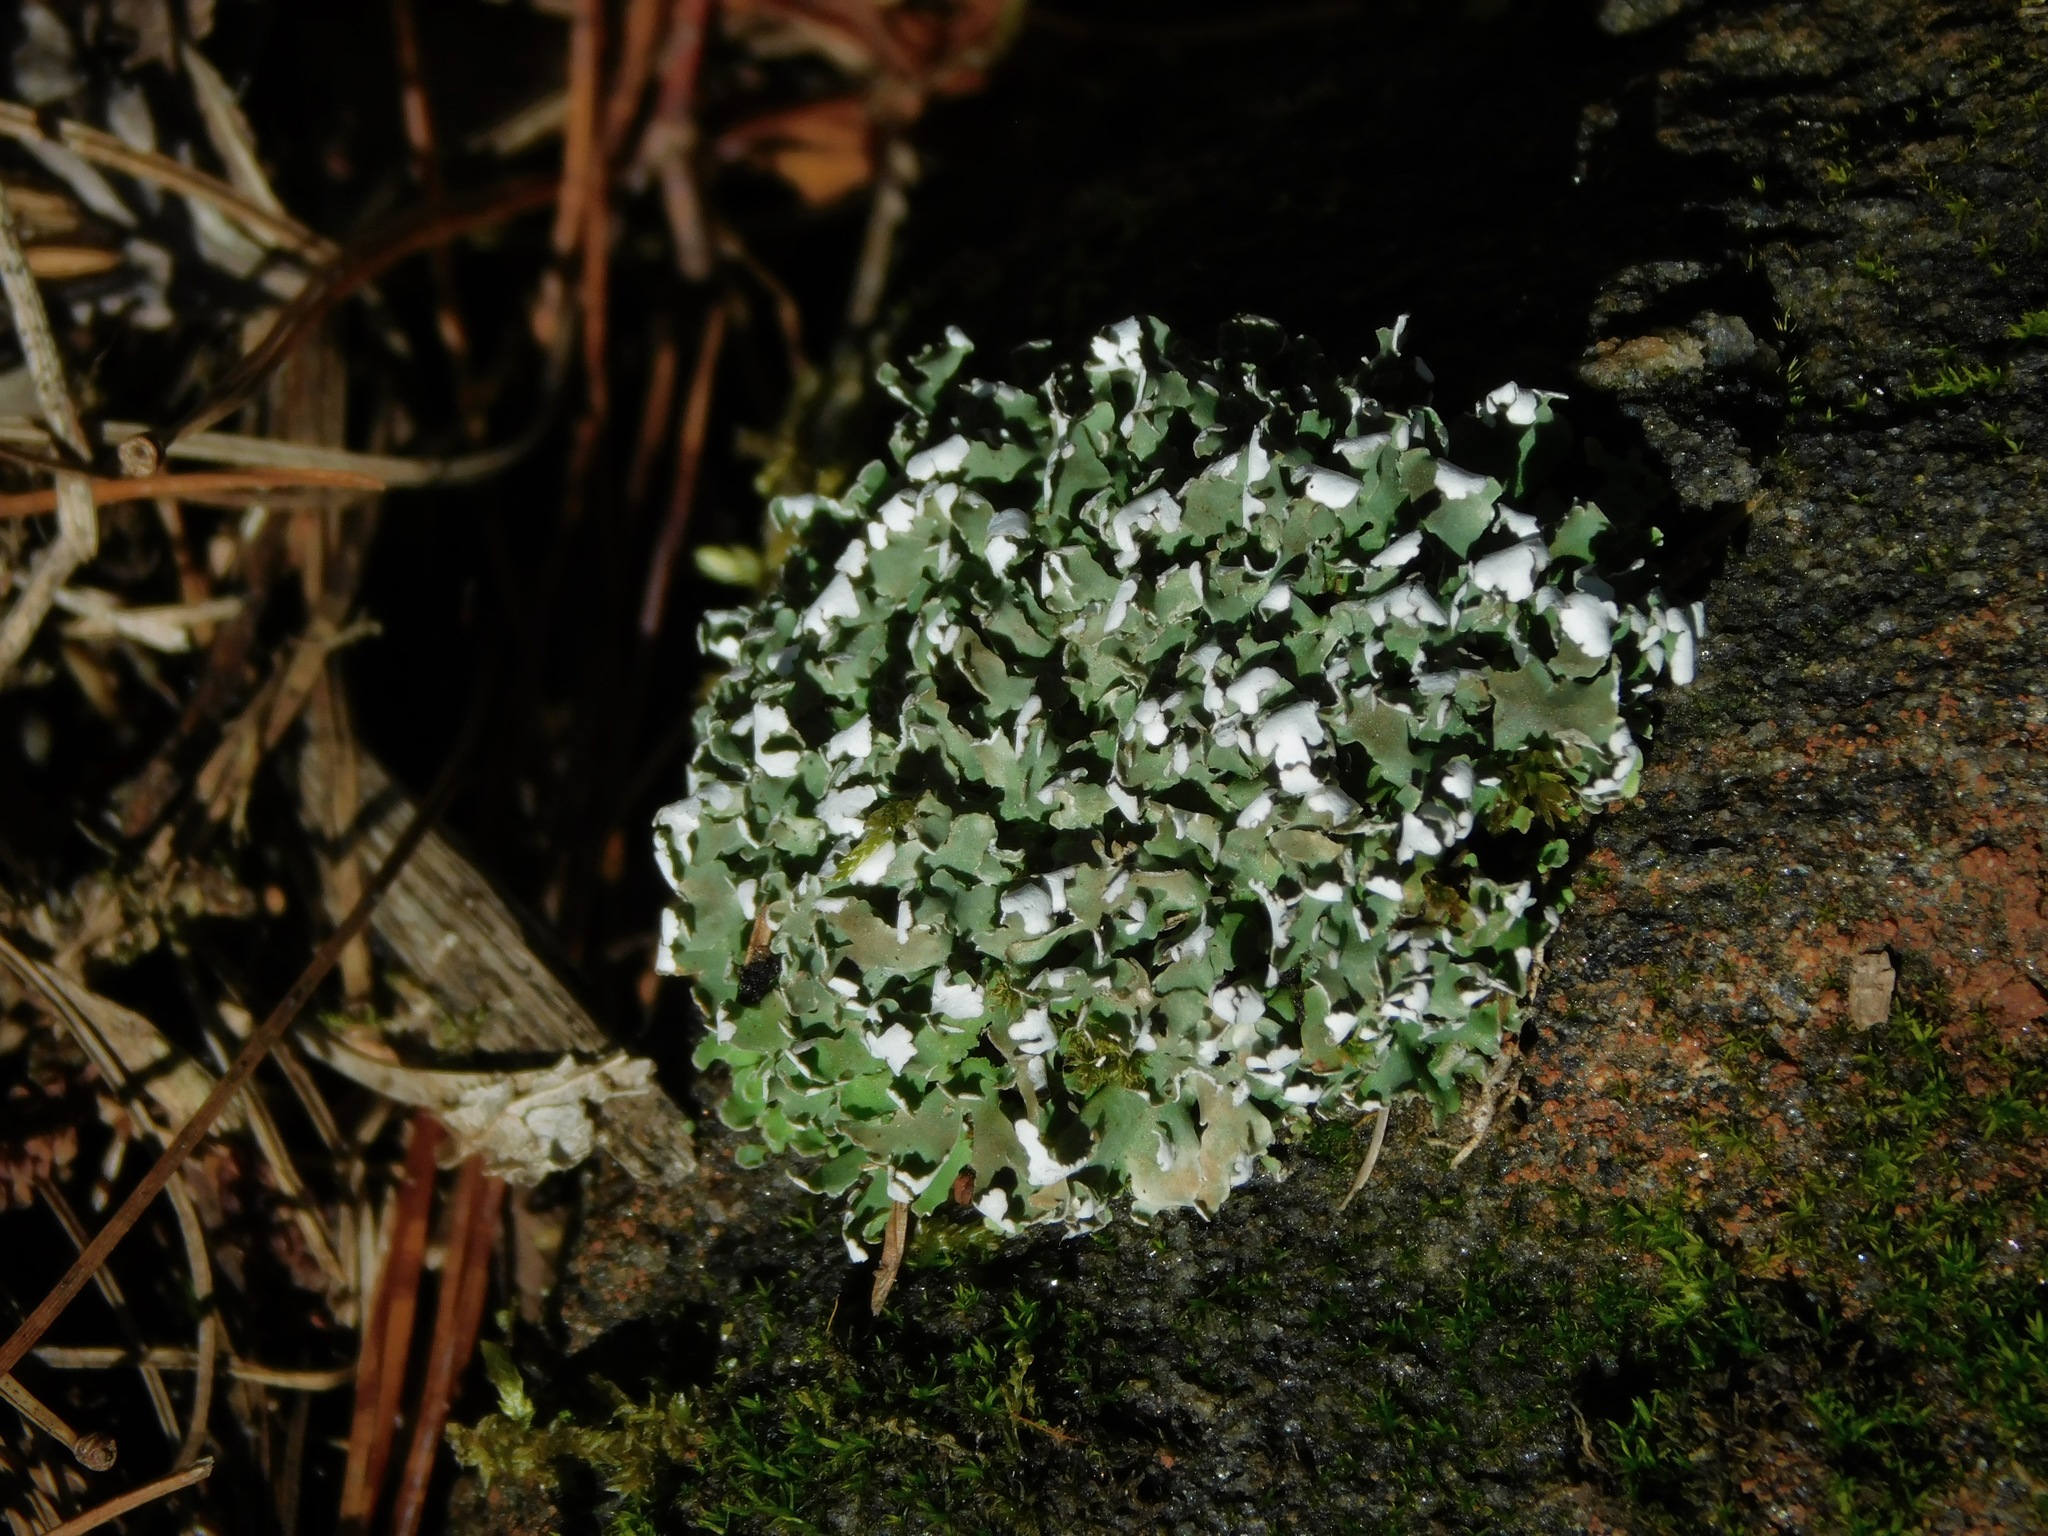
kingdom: Fungi
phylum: Ascomycota
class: Lecanoromycetes
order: Lecanorales
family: Cladoniaceae
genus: Cladonia
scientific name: Cladonia strepsilis
